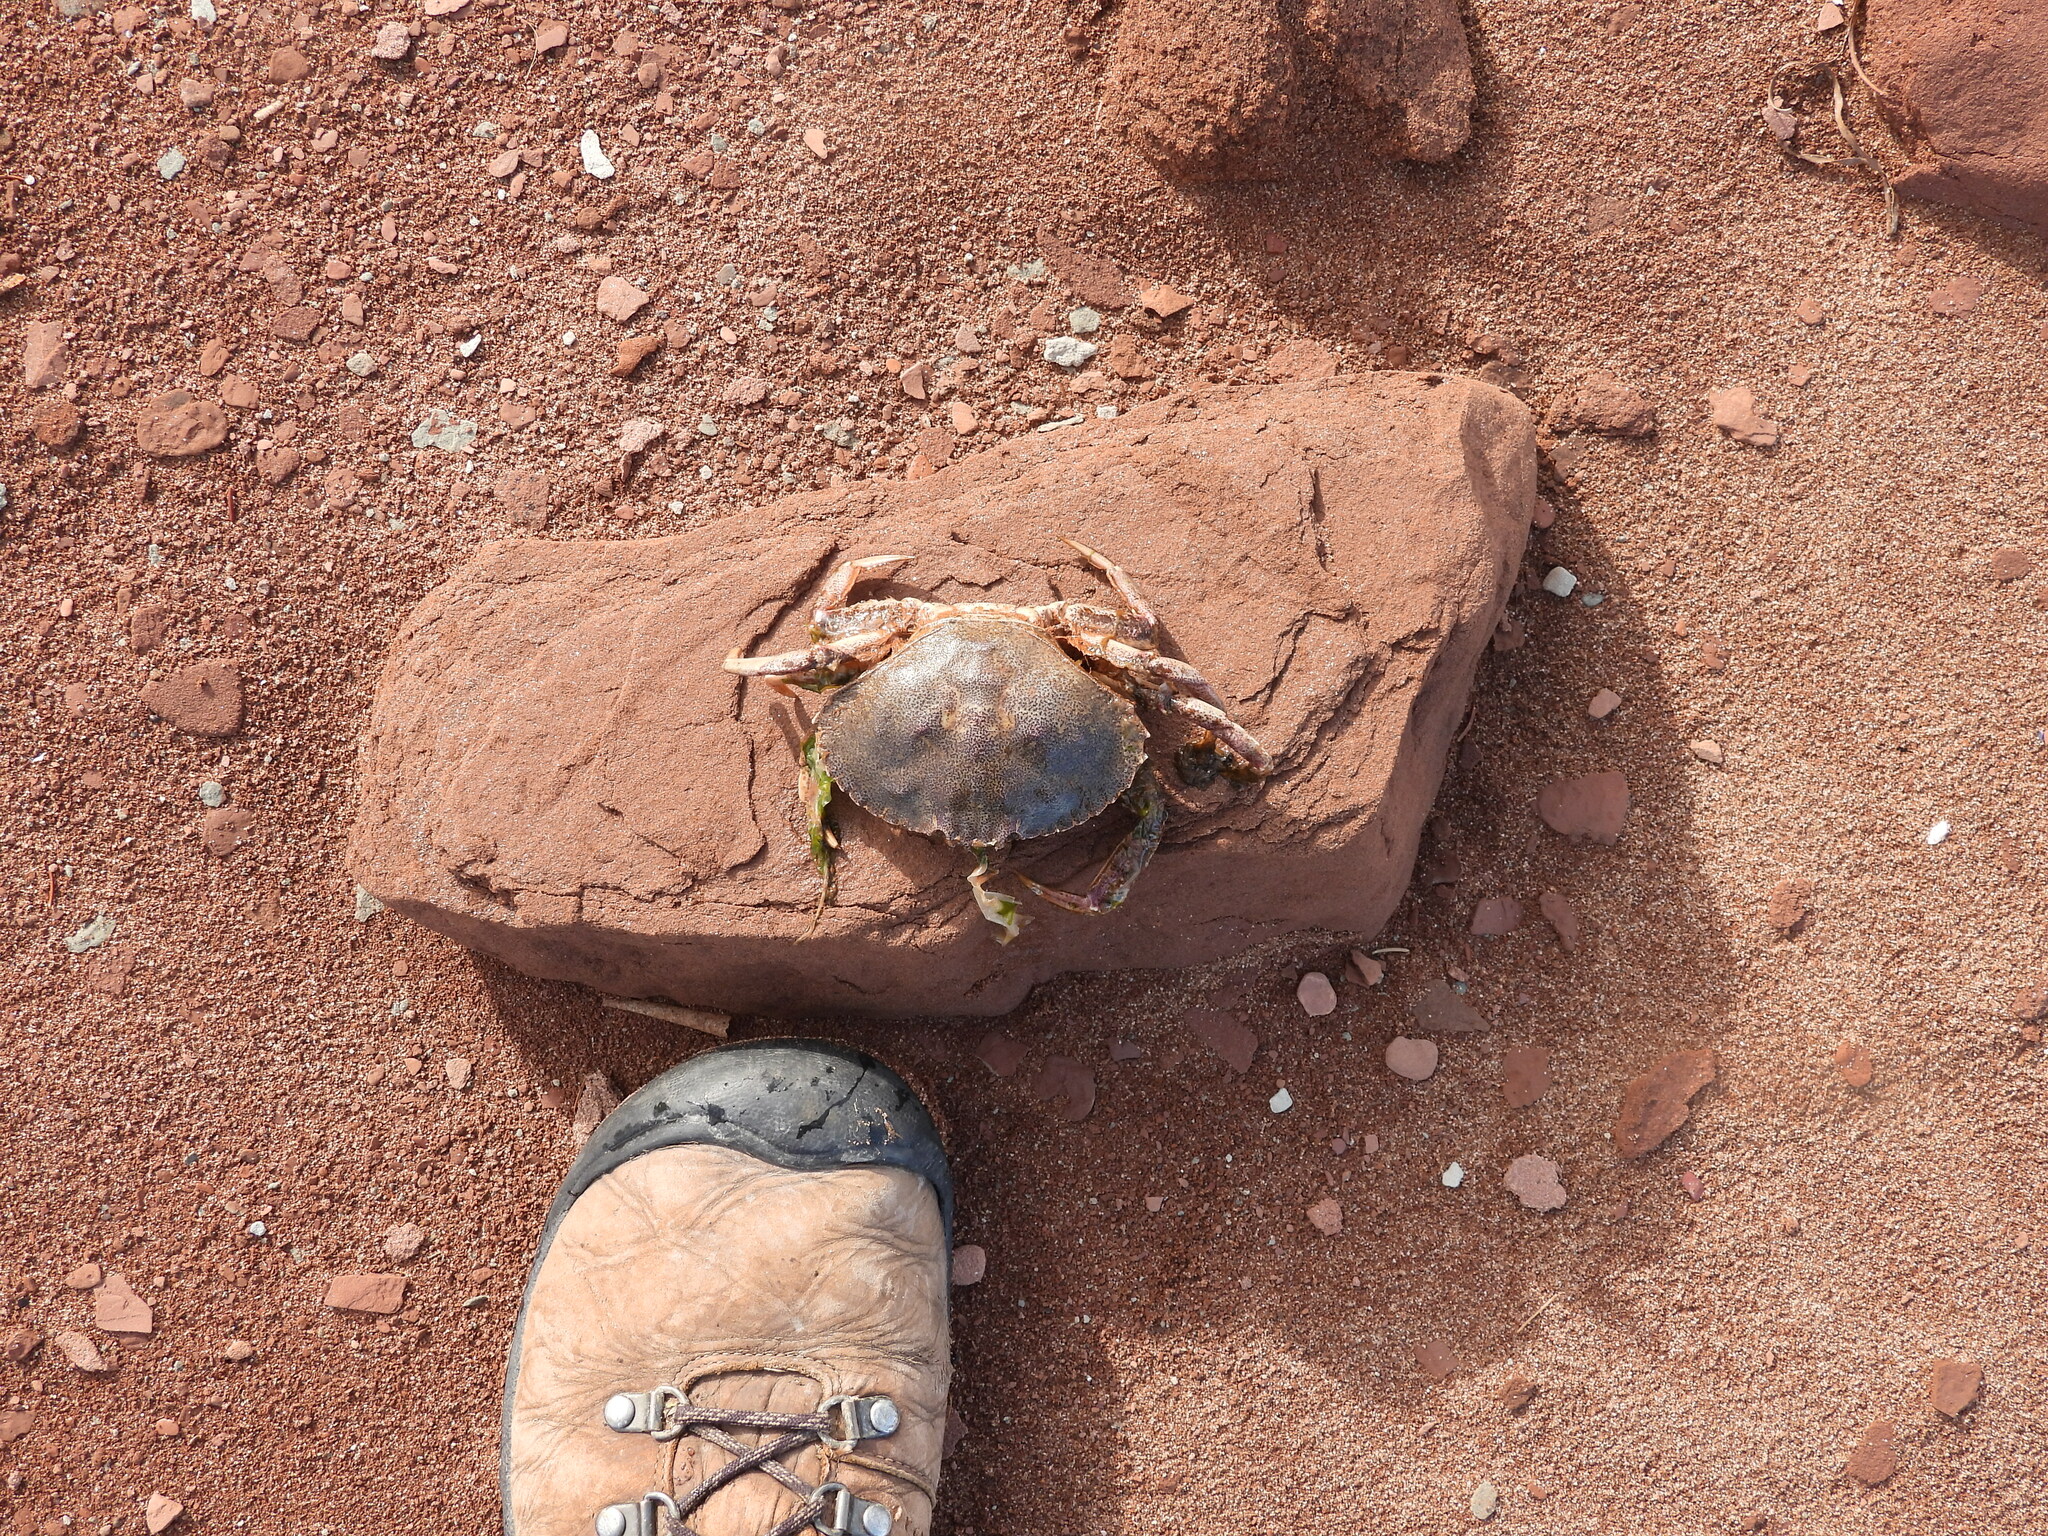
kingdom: Animalia
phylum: Arthropoda
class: Malacostraca
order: Decapoda
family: Cancridae
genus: Cancer
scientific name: Cancer irroratus
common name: Atlantic rock crab
